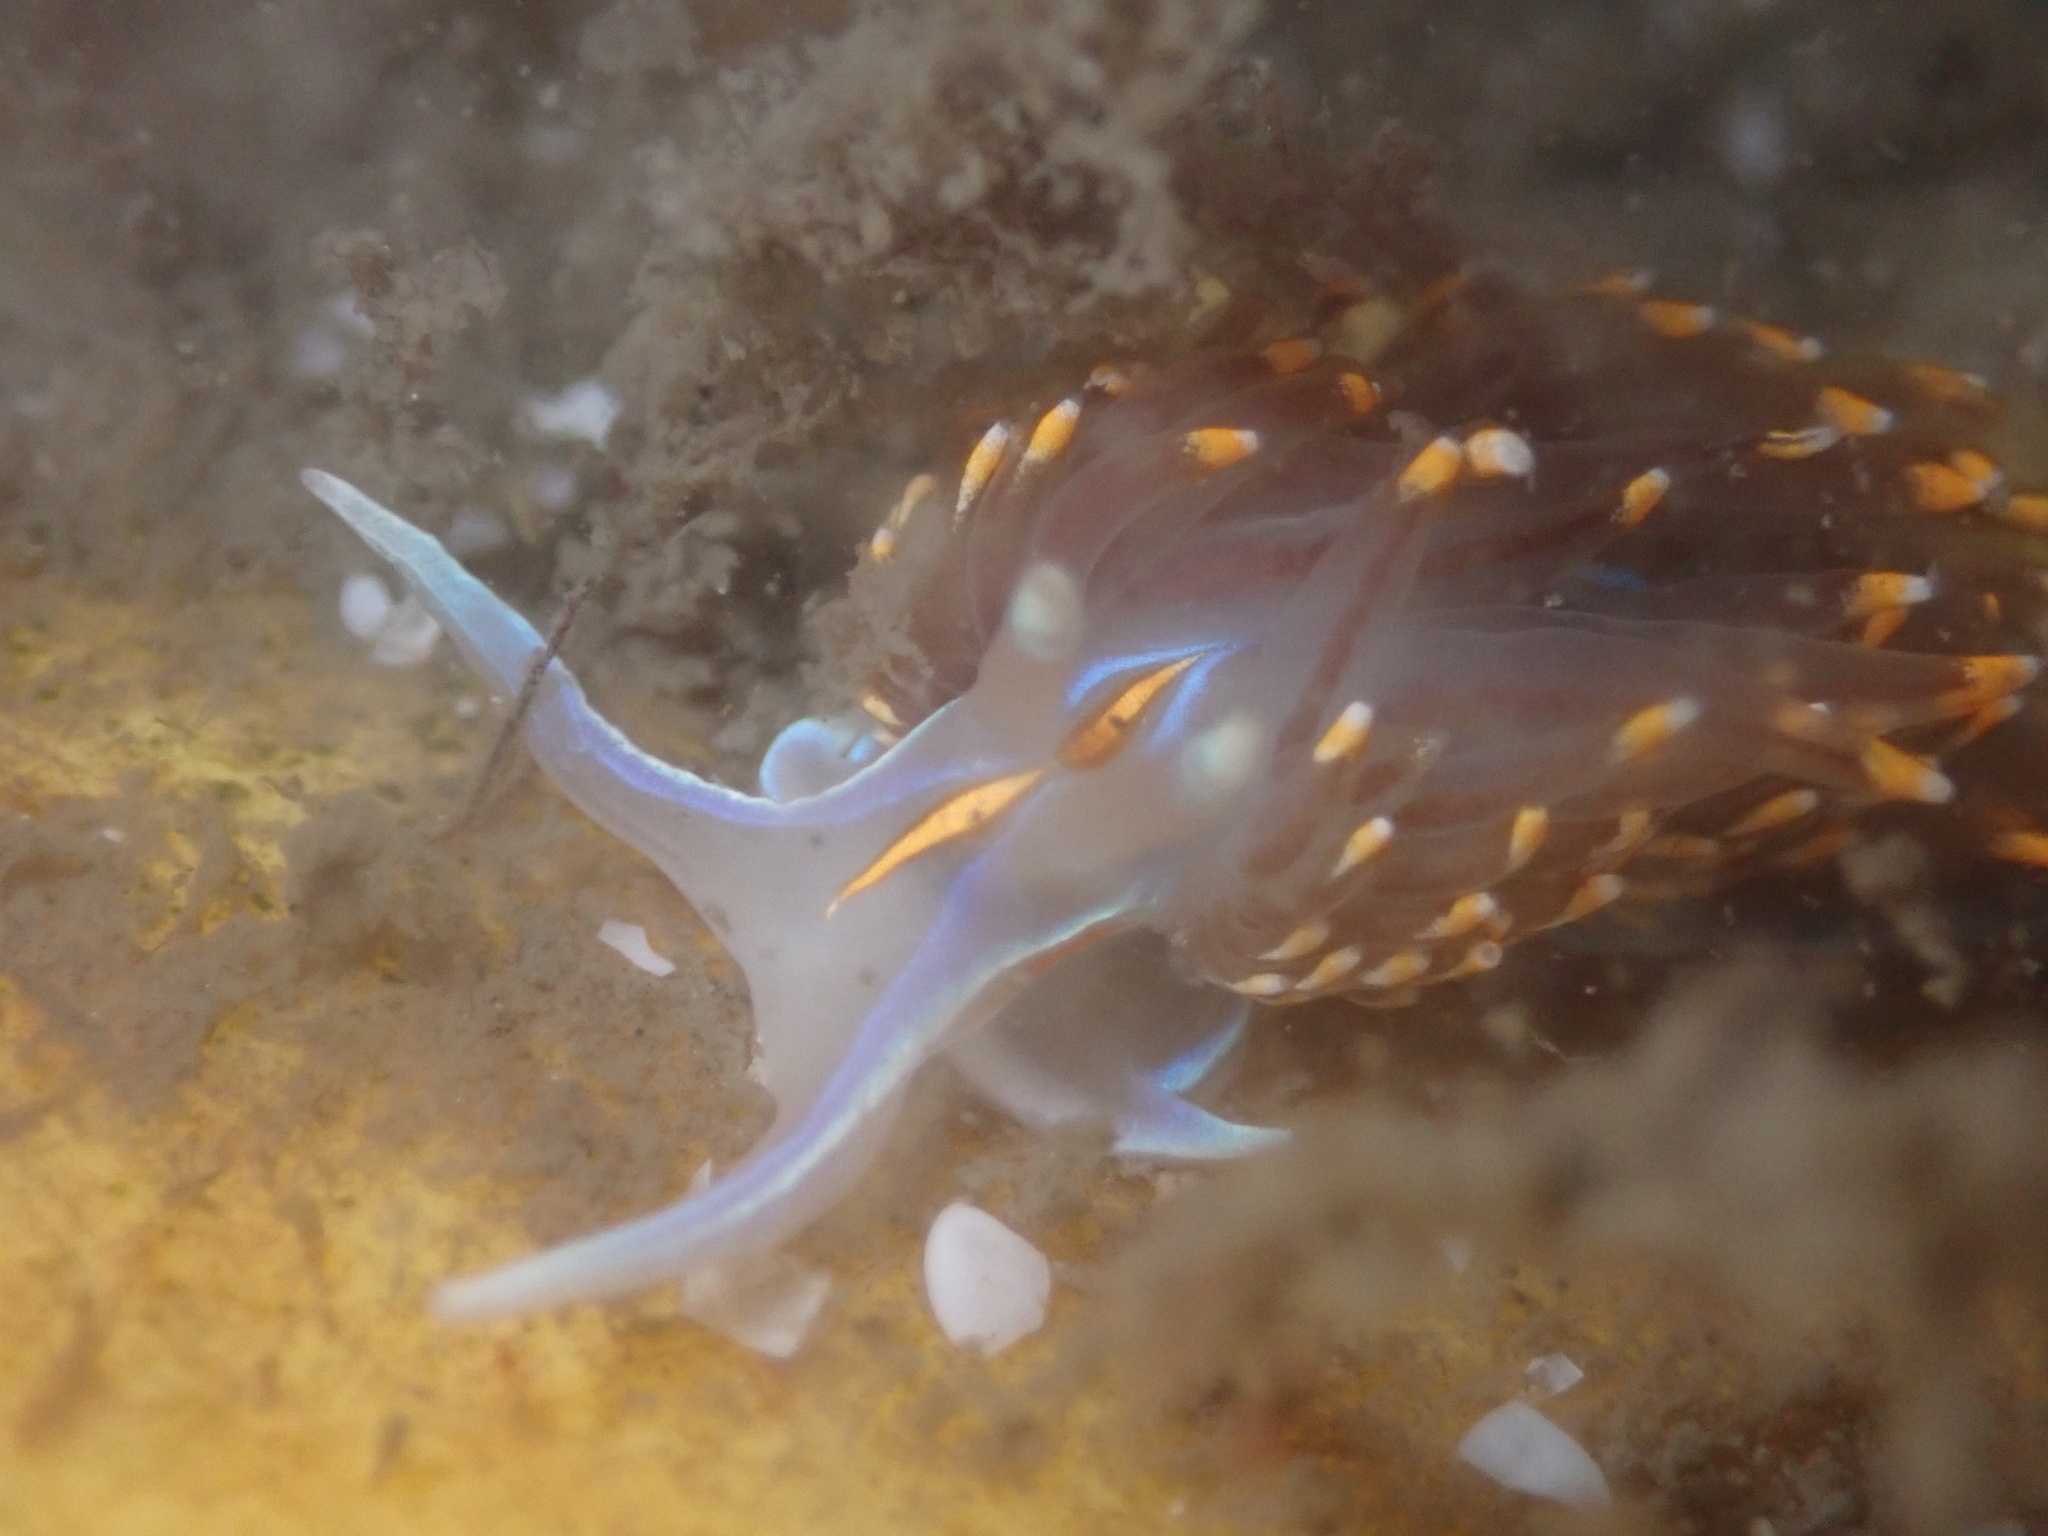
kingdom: Animalia
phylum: Mollusca
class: Gastropoda
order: Nudibranchia
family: Myrrhinidae
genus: Hermissenda
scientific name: Hermissenda opalescens
